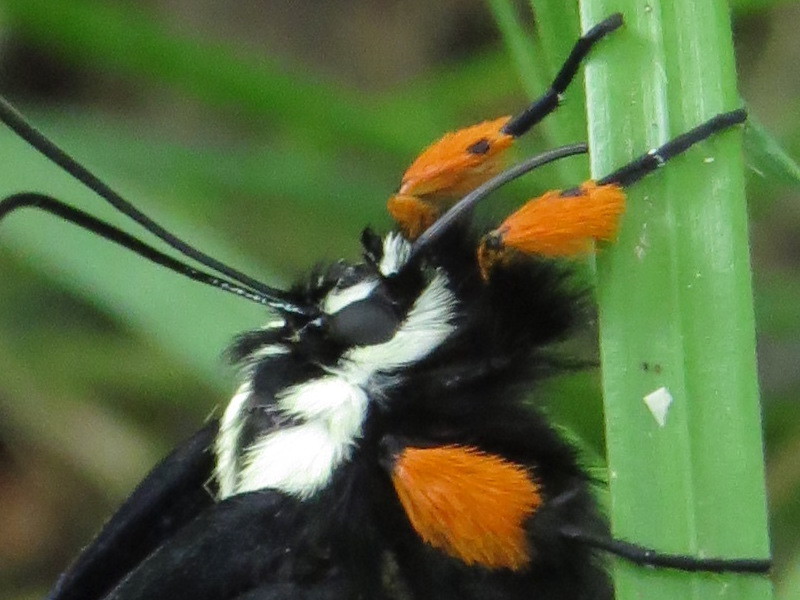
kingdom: Animalia
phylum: Arthropoda
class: Insecta
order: Lepidoptera
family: Noctuidae
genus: Alypia
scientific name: Alypia octomaculata
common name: Eight-spotted forester
